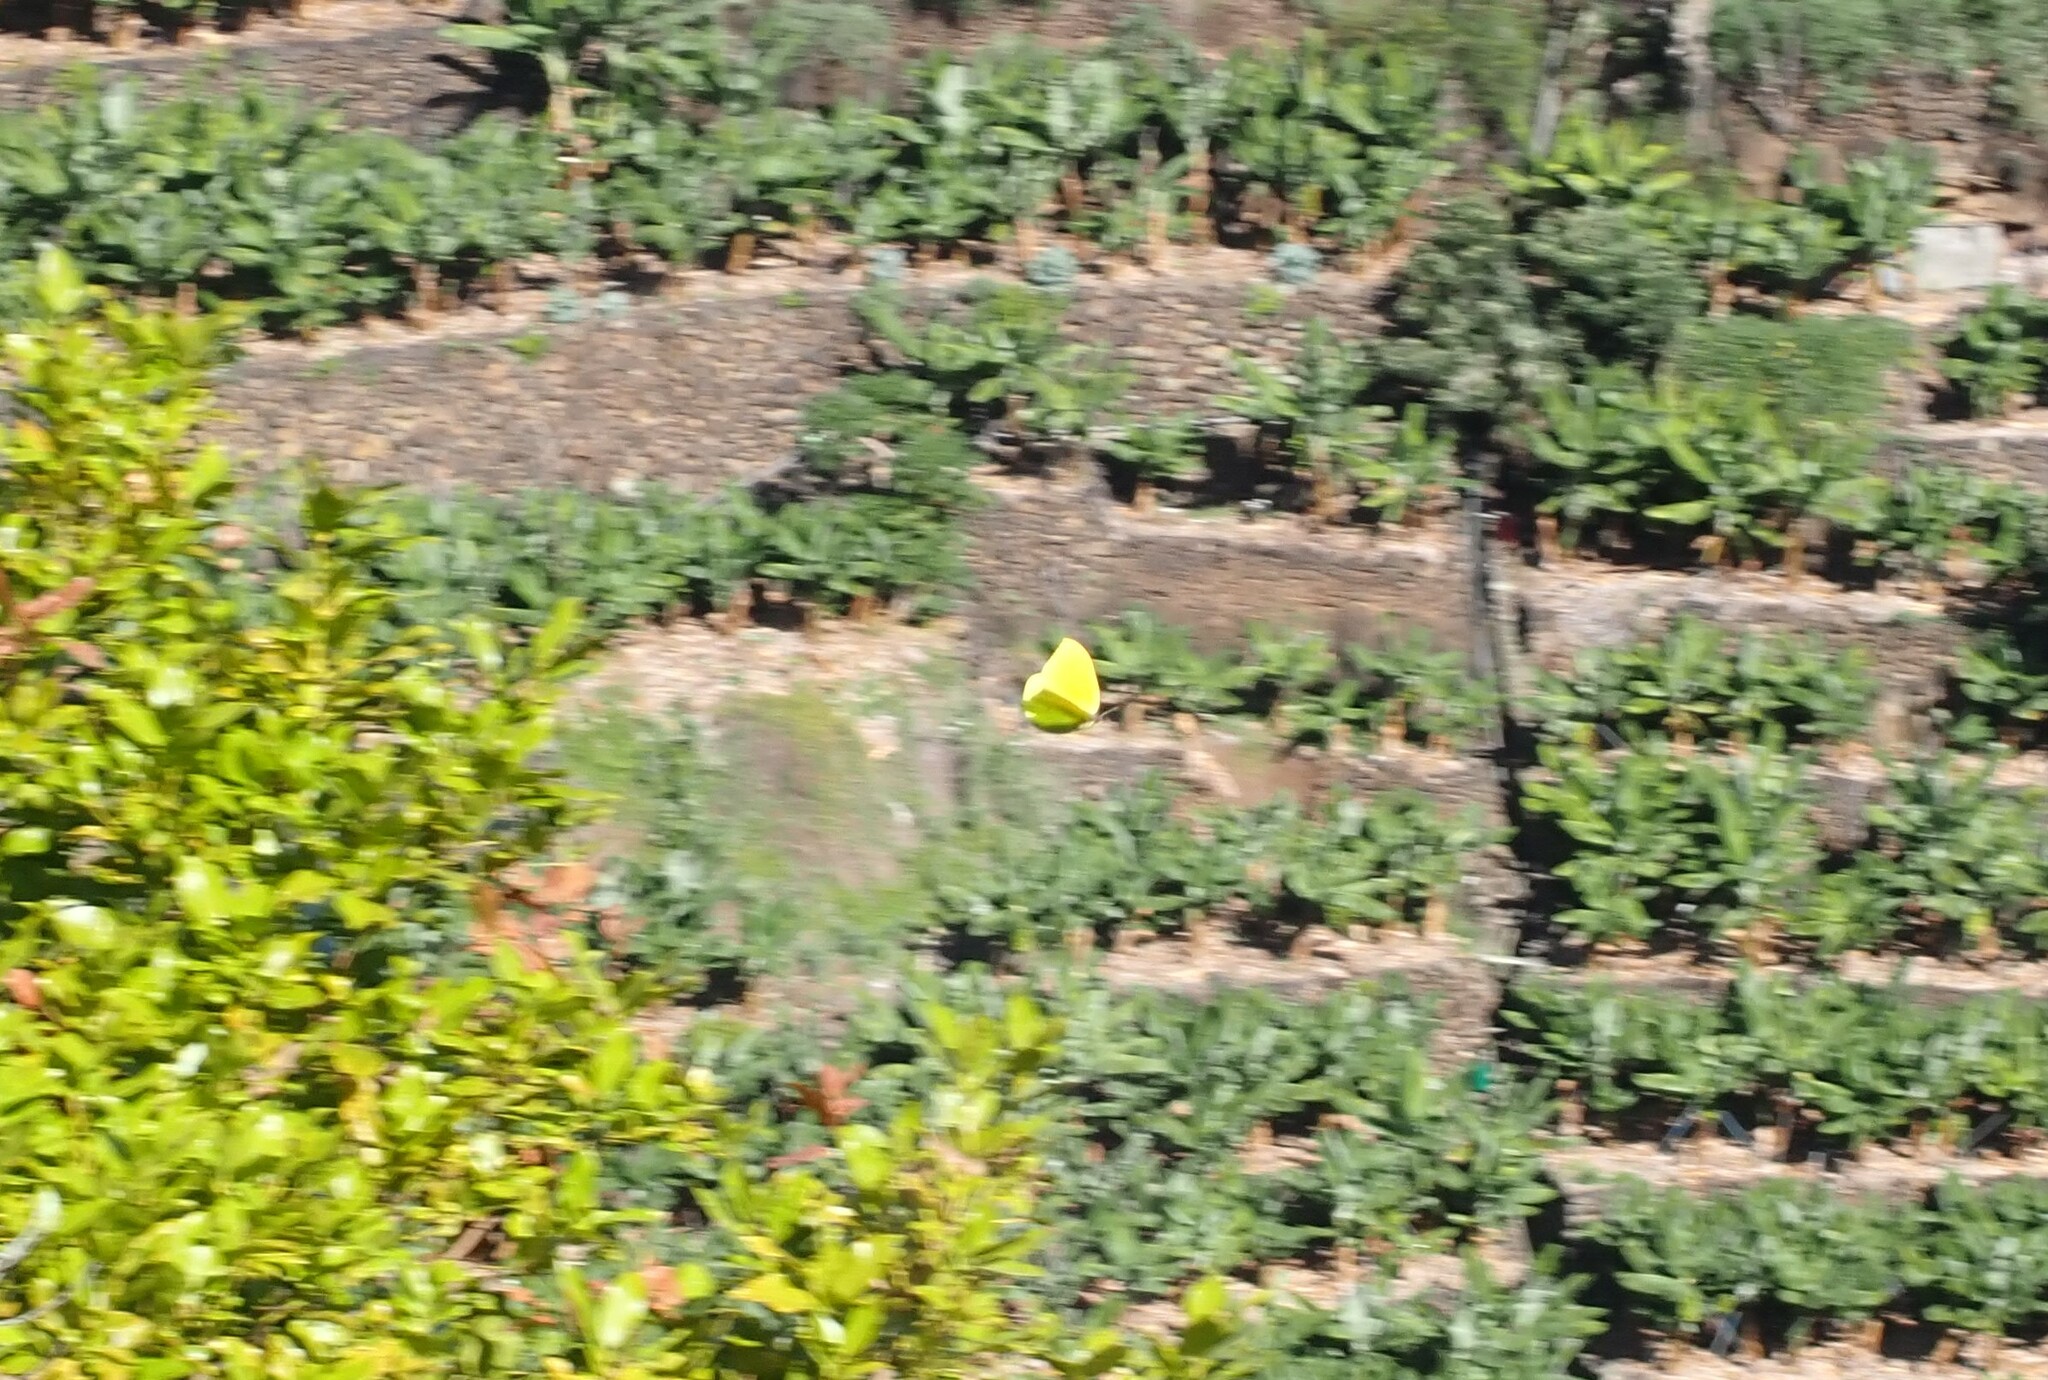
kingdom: Animalia
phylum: Arthropoda
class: Insecta
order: Lepidoptera
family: Pieridae
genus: Gonepteryx
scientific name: Gonepteryx cleobule
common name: Canary brimstone
